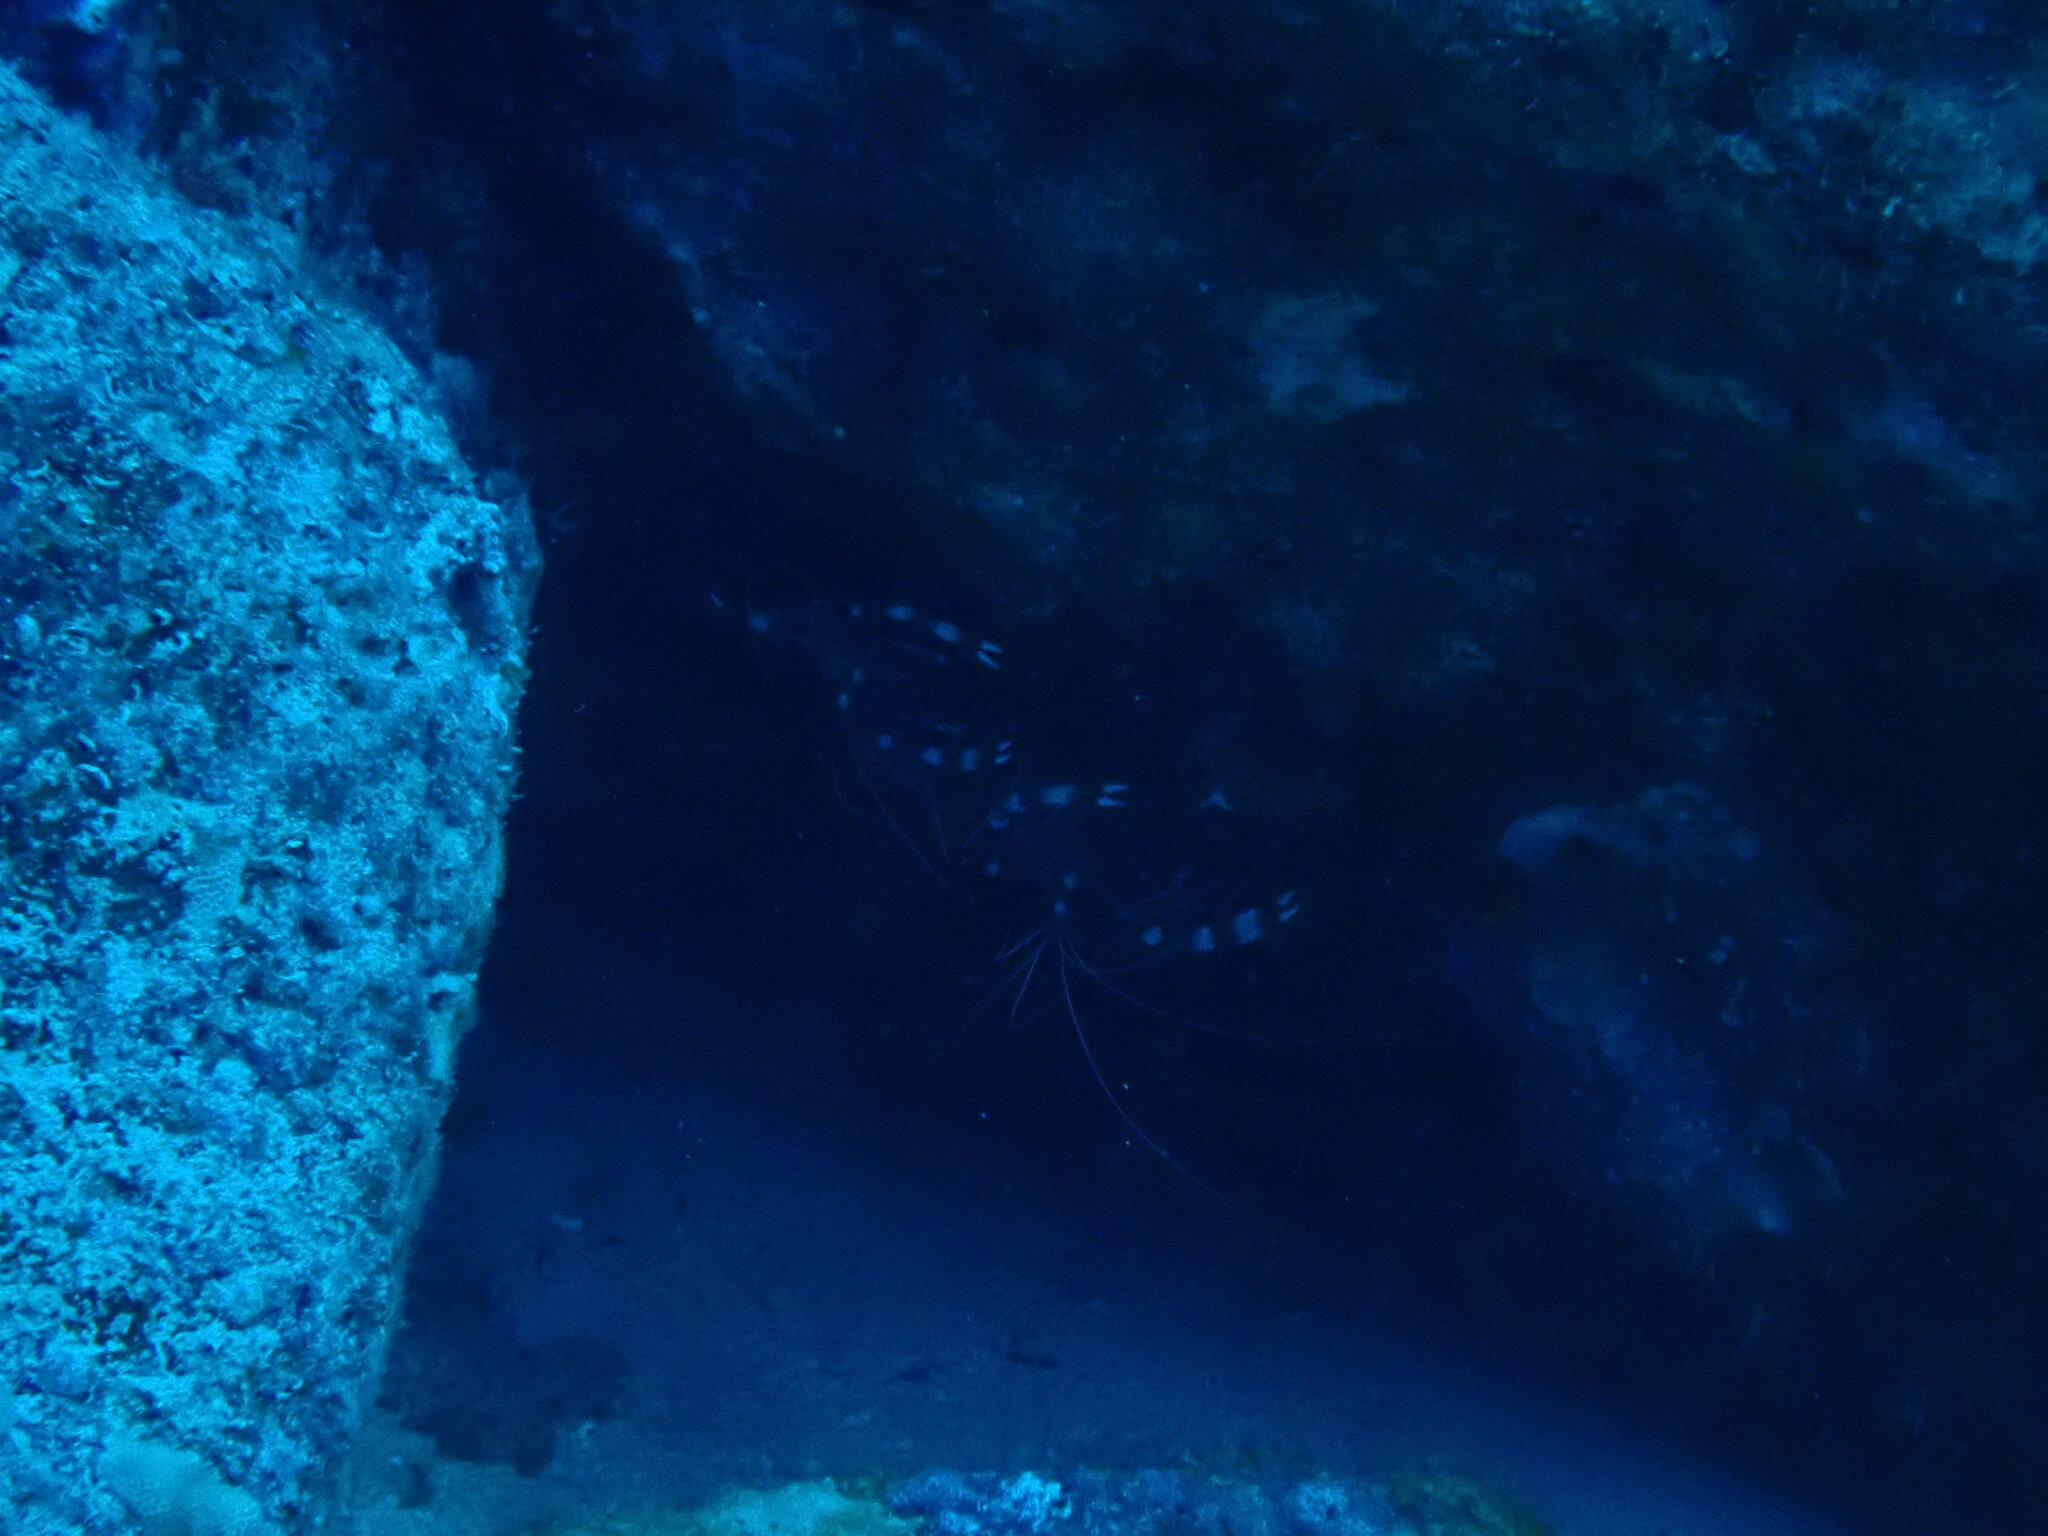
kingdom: Animalia
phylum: Arthropoda
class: Malacostraca
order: Decapoda
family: Stenopodidae
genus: Stenopus
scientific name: Stenopus hispidus
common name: Banded coral shrimp
